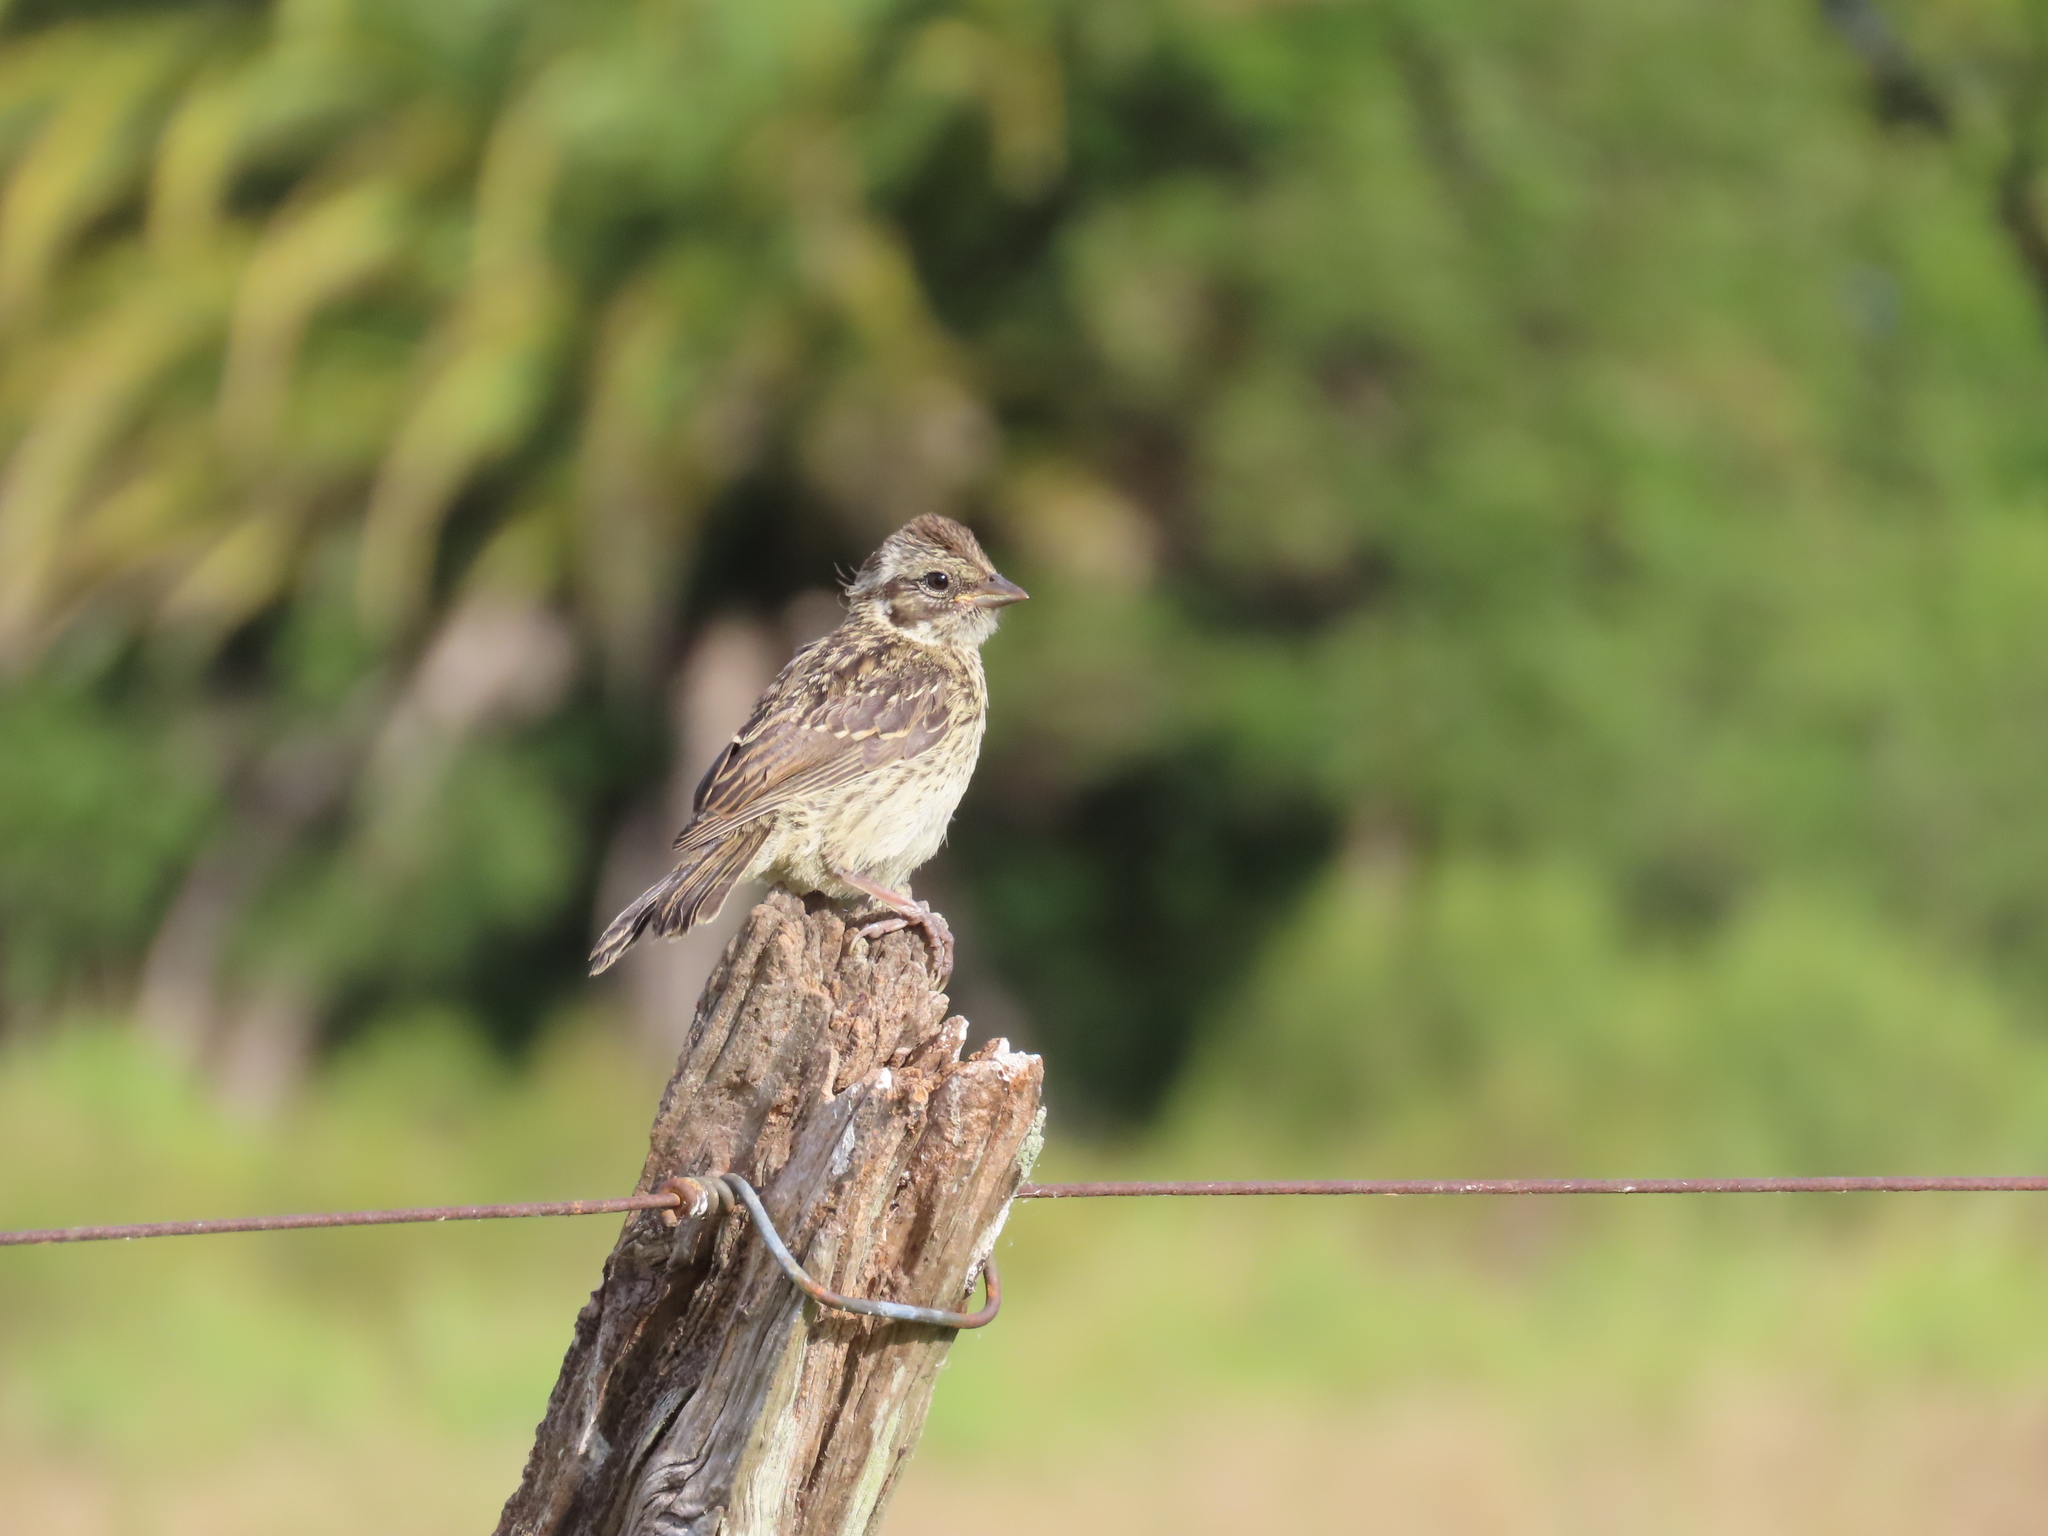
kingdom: Animalia
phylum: Chordata
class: Aves
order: Passeriformes
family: Passerellidae
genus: Zonotrichia
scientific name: Zonotrichia capensis
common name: Rufous-collared sparrow
